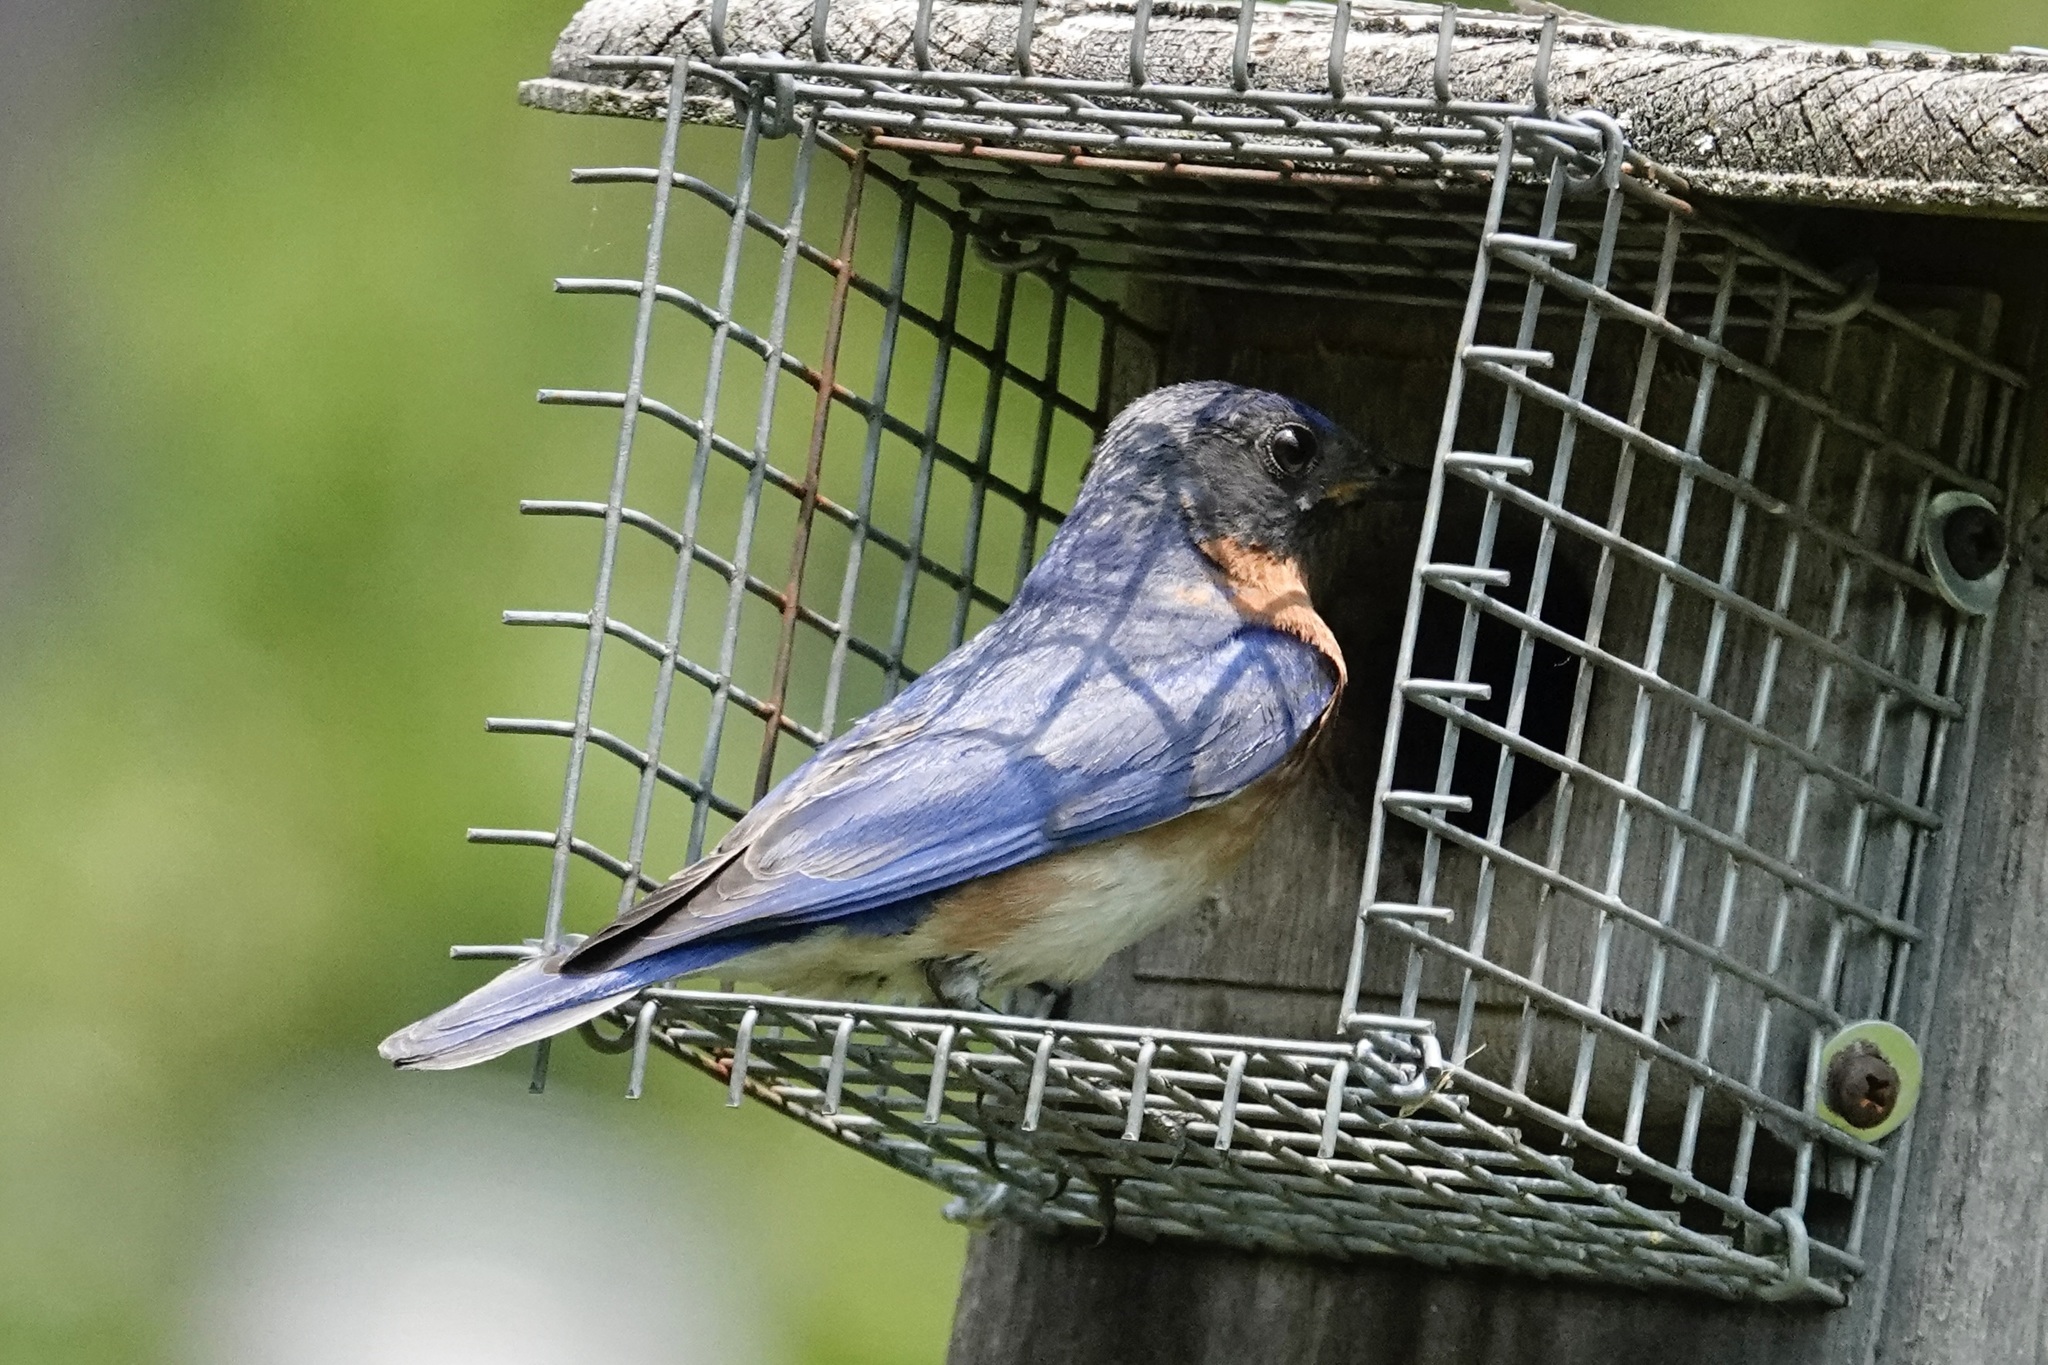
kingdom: Animalia
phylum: Chordata
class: Aves
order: Passeriformes
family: Turdidae
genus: Sialia
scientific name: Sialia sialis
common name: Eastern bluebird
